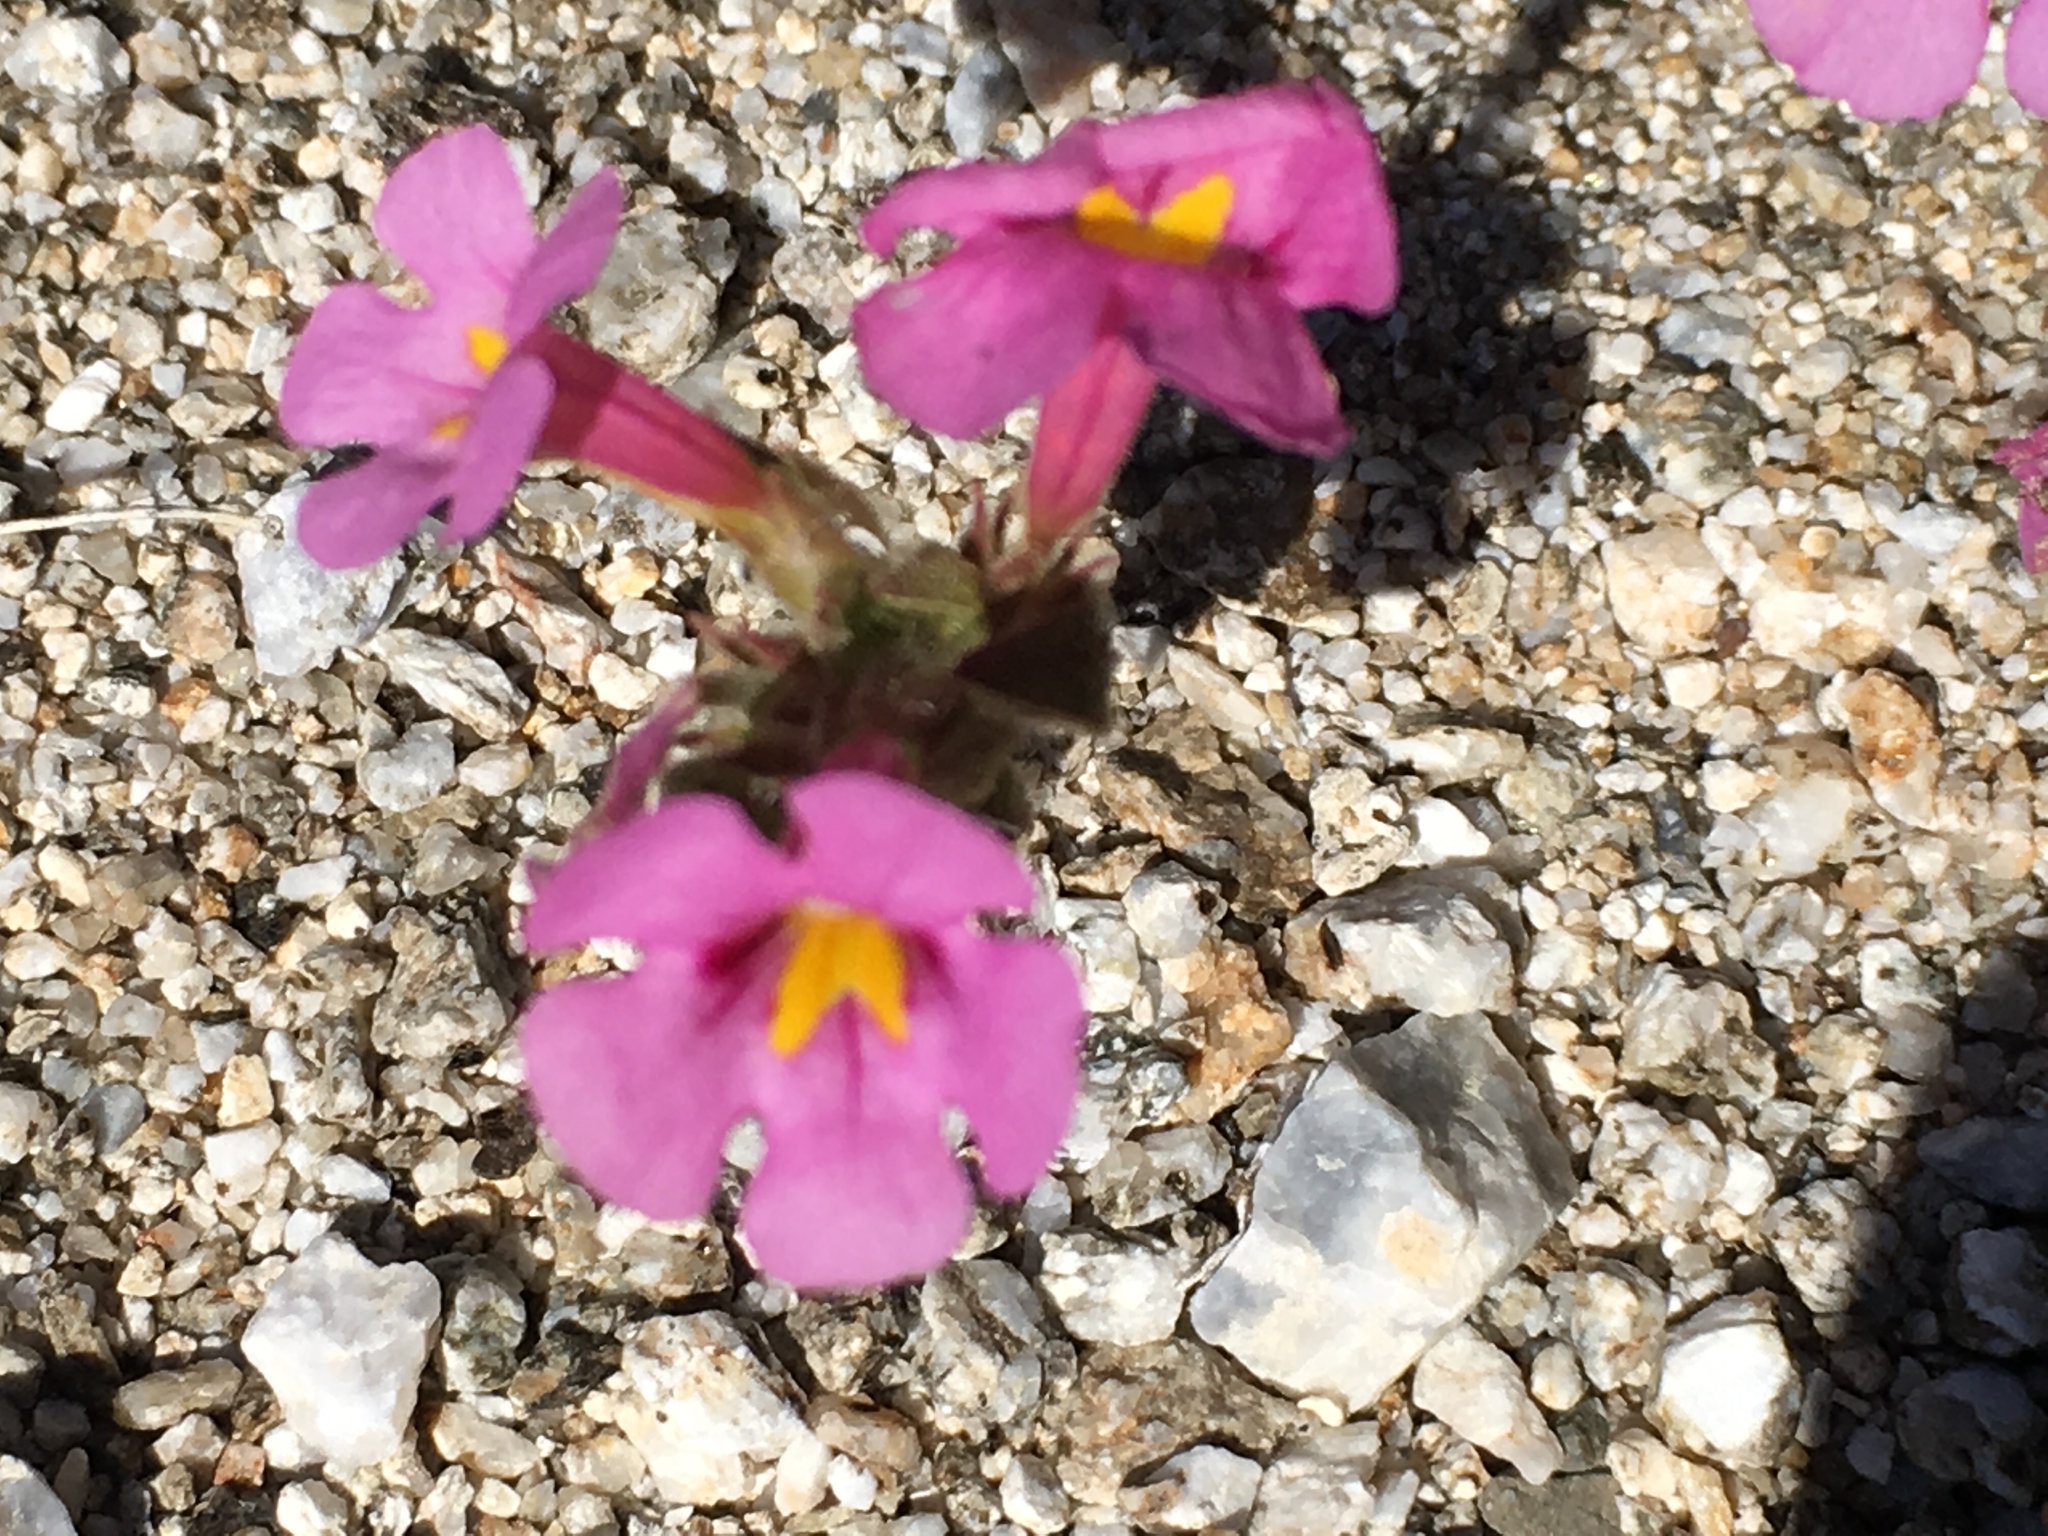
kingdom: Plantae
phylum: Tracheophyta
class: Magnoliopsida
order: Lamiales
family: Phrymaceae
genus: Diplacus
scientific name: Diplacus bigelovii
